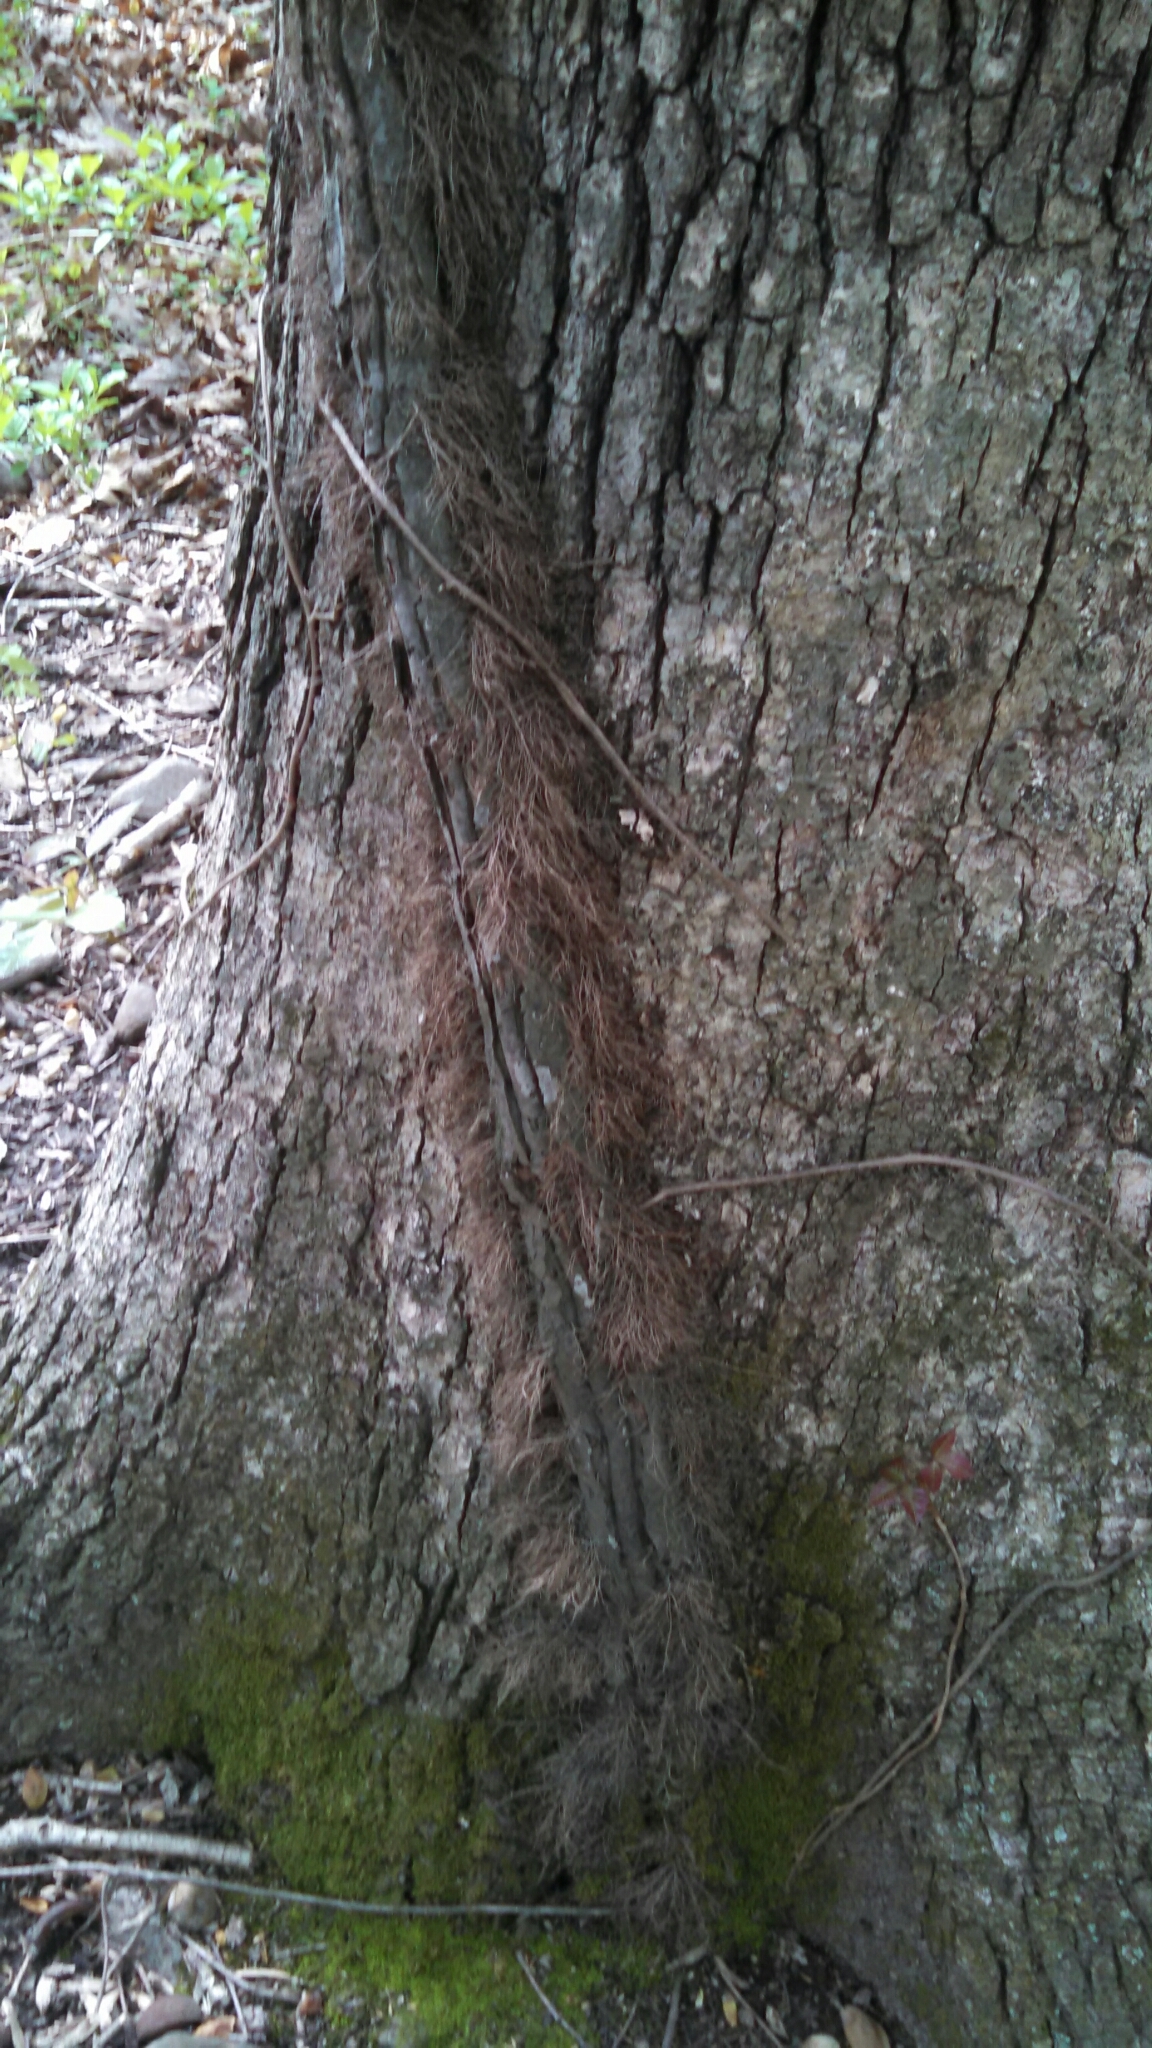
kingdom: Plantae
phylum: Tracheophyta
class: Magnoliopsida
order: Sapindales
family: Anacardiaceae
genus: Toxicodendron
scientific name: Toxicodendron radicans
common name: Poison ivy
